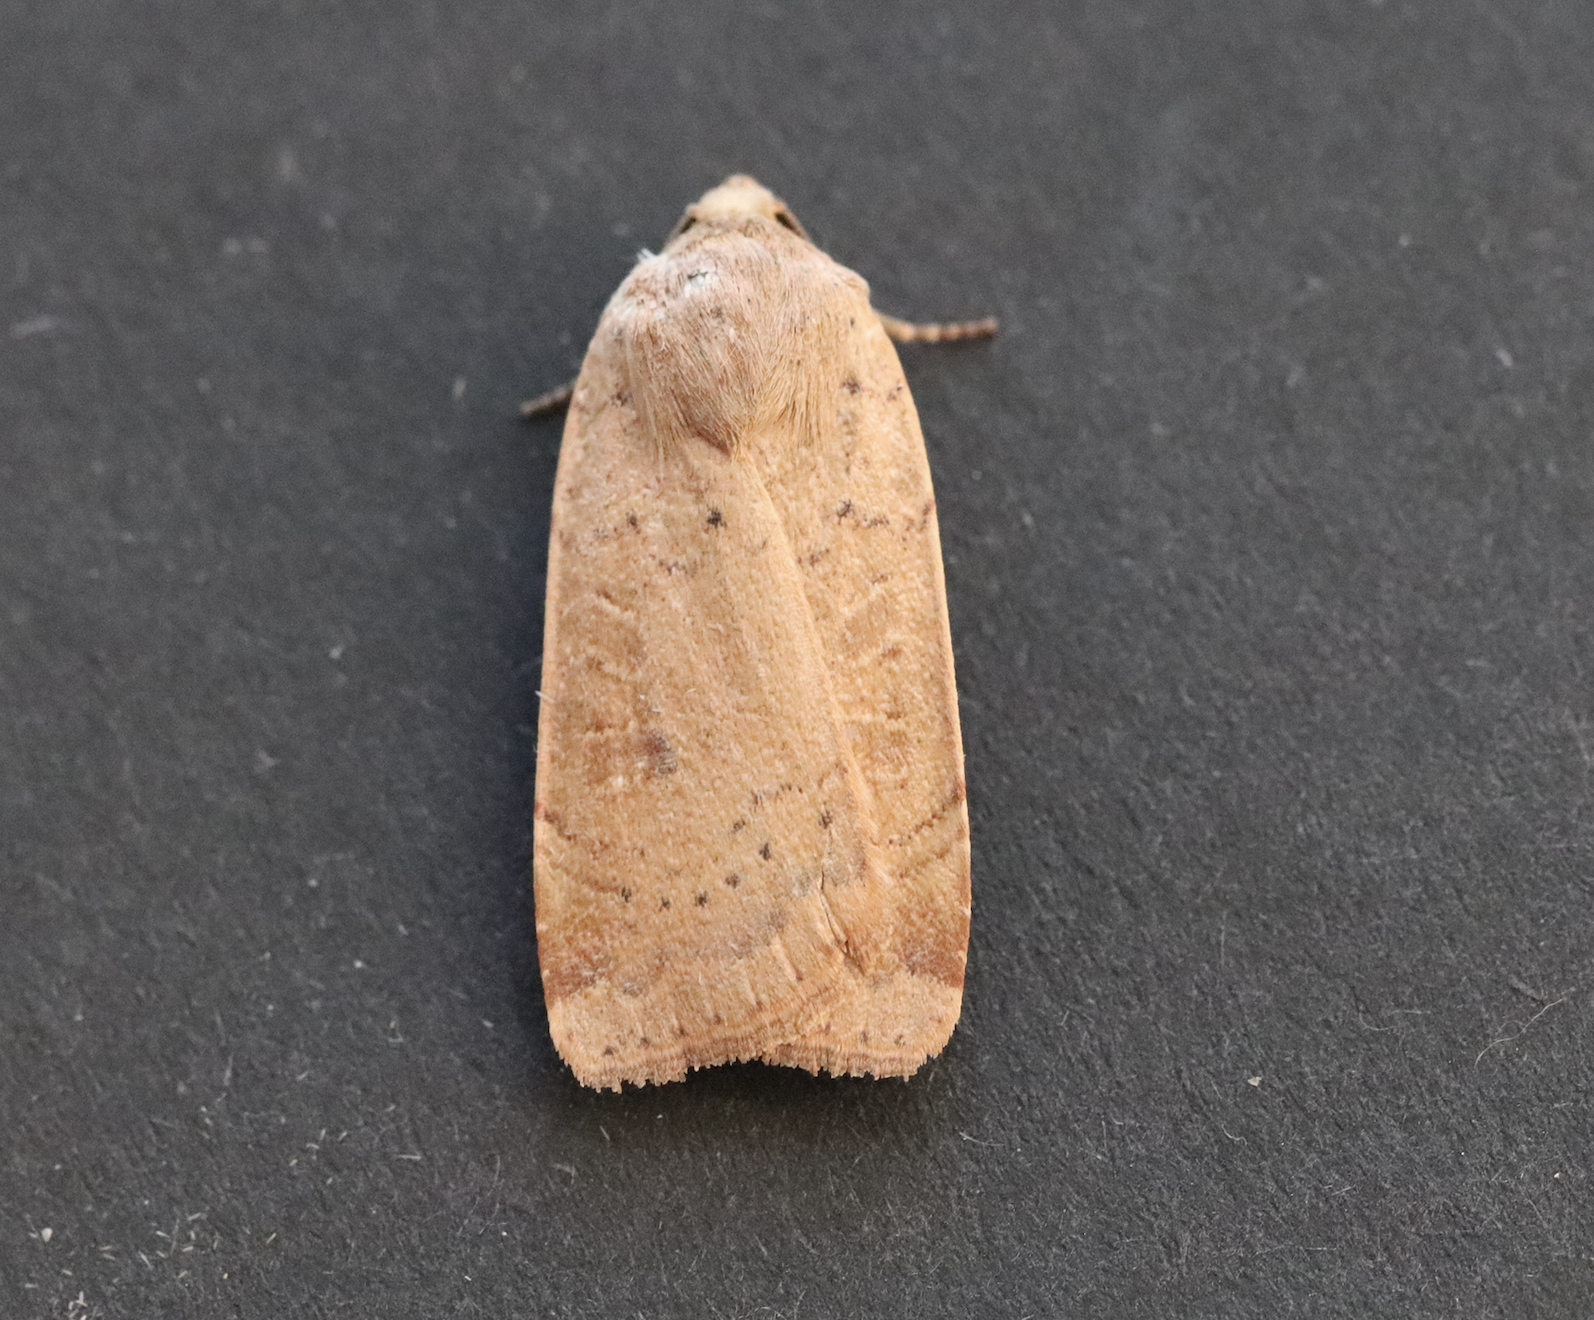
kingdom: Animalia
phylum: Arthropoda
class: Insecta
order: Lepidoptera
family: Noctuidae
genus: Noctua
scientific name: Noctua comes
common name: Lesser yellow underwing
